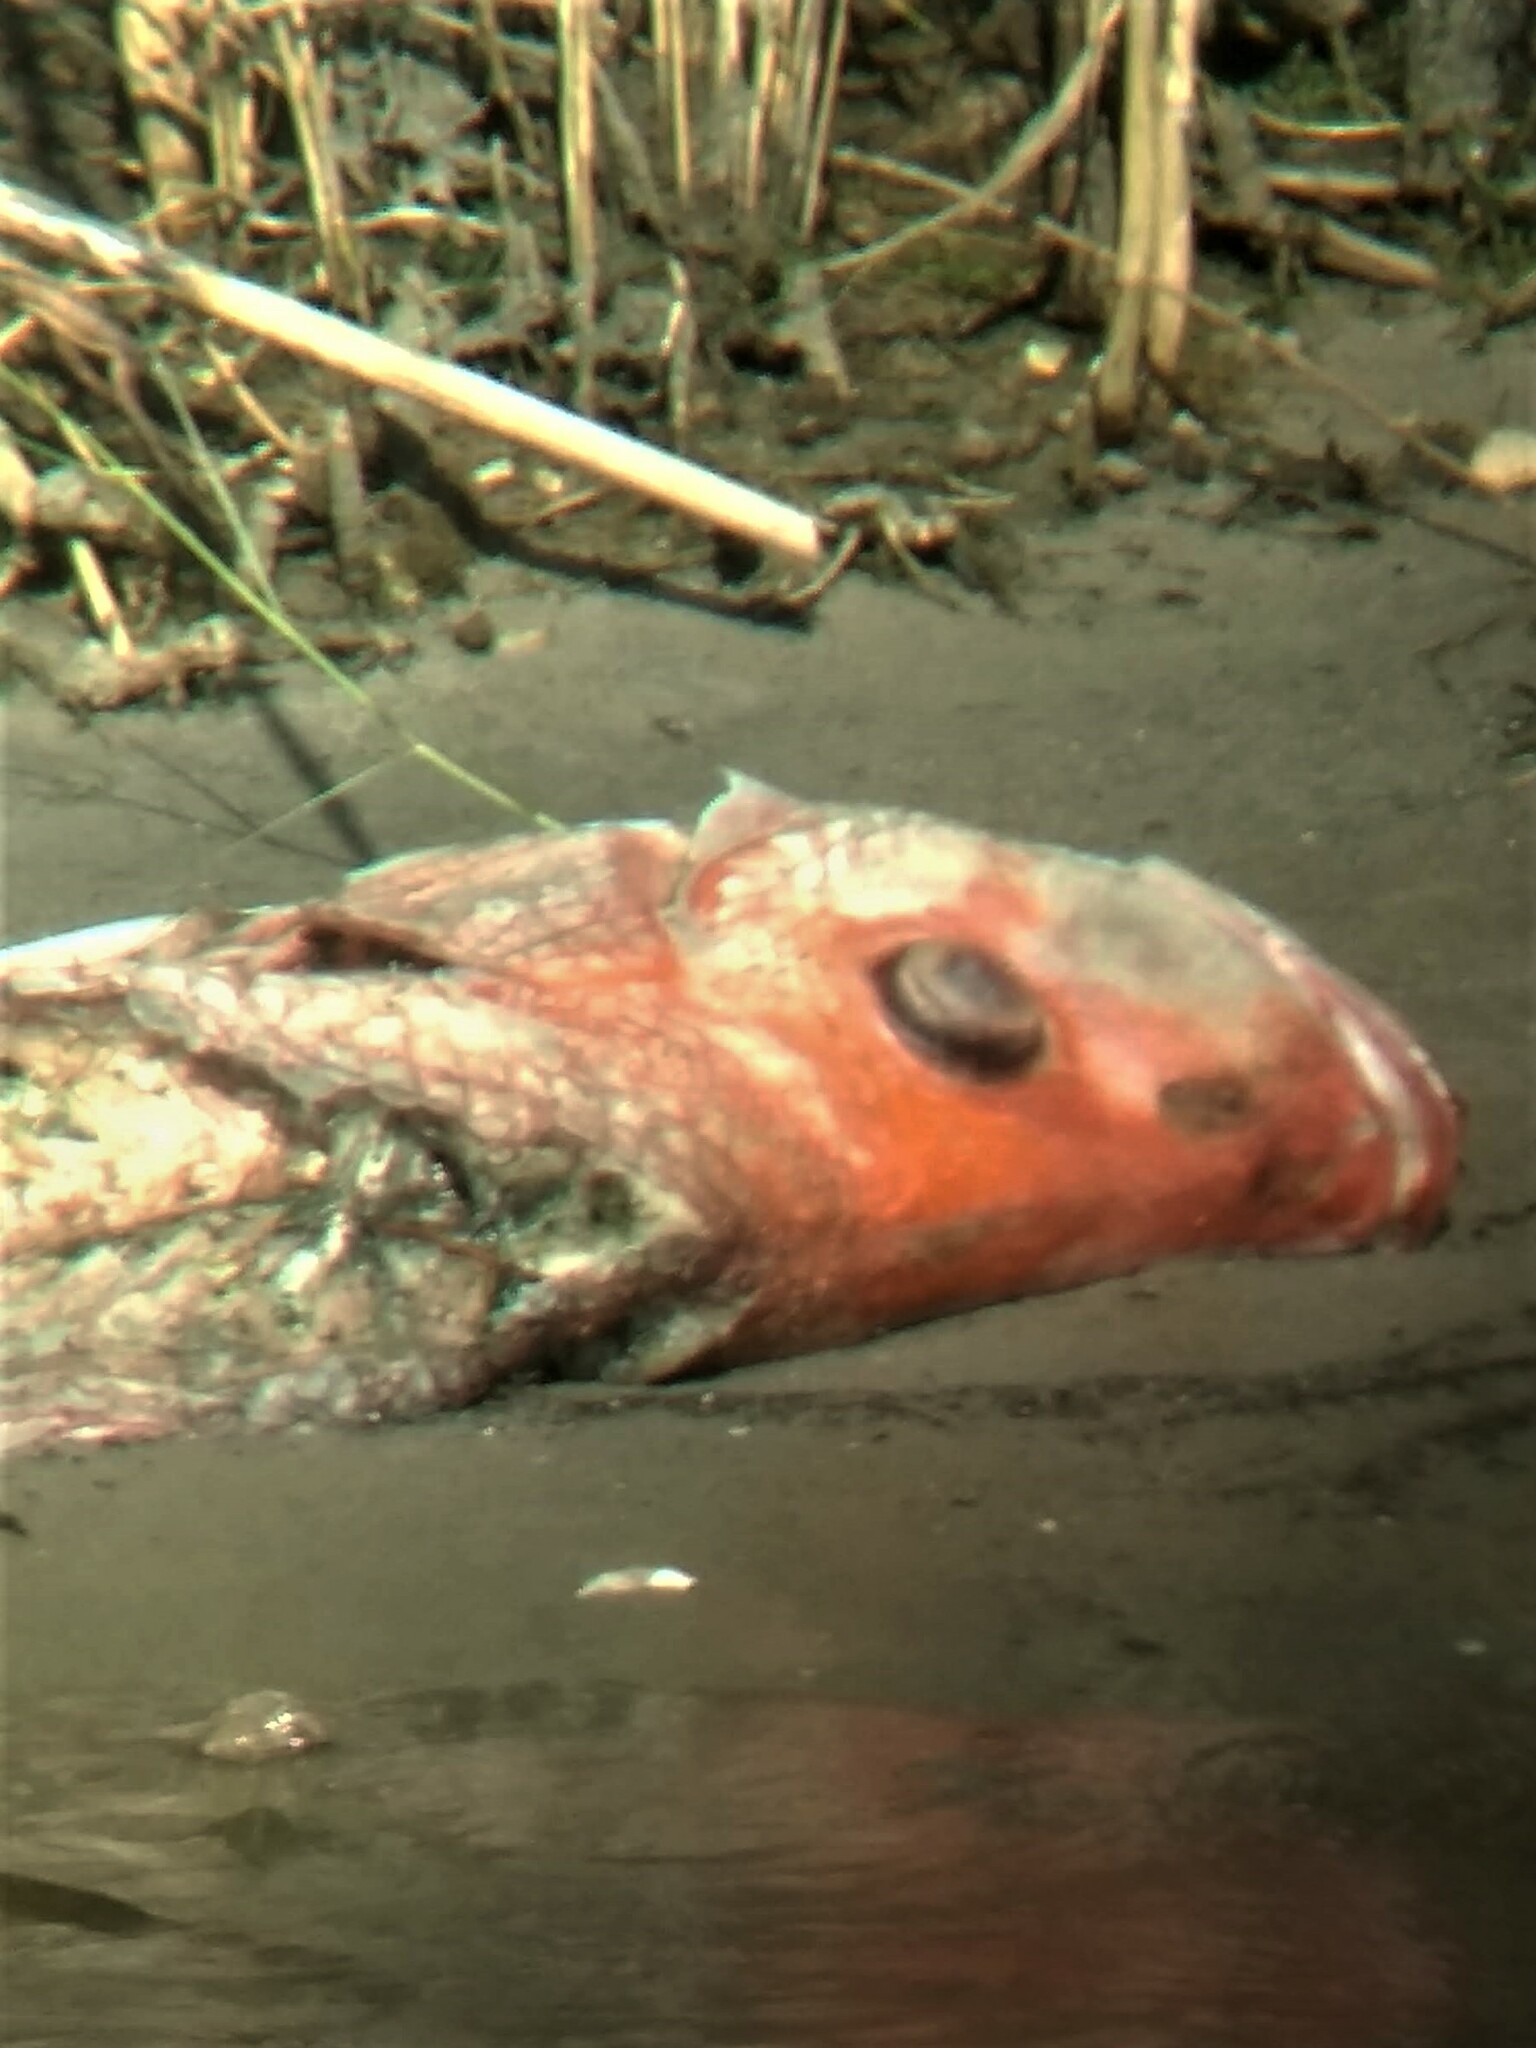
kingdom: Animalia
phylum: Chordata
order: Perciformes
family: Lutjanidae
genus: Lutjanus
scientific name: Lutjanus campechanus
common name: Red snapper
